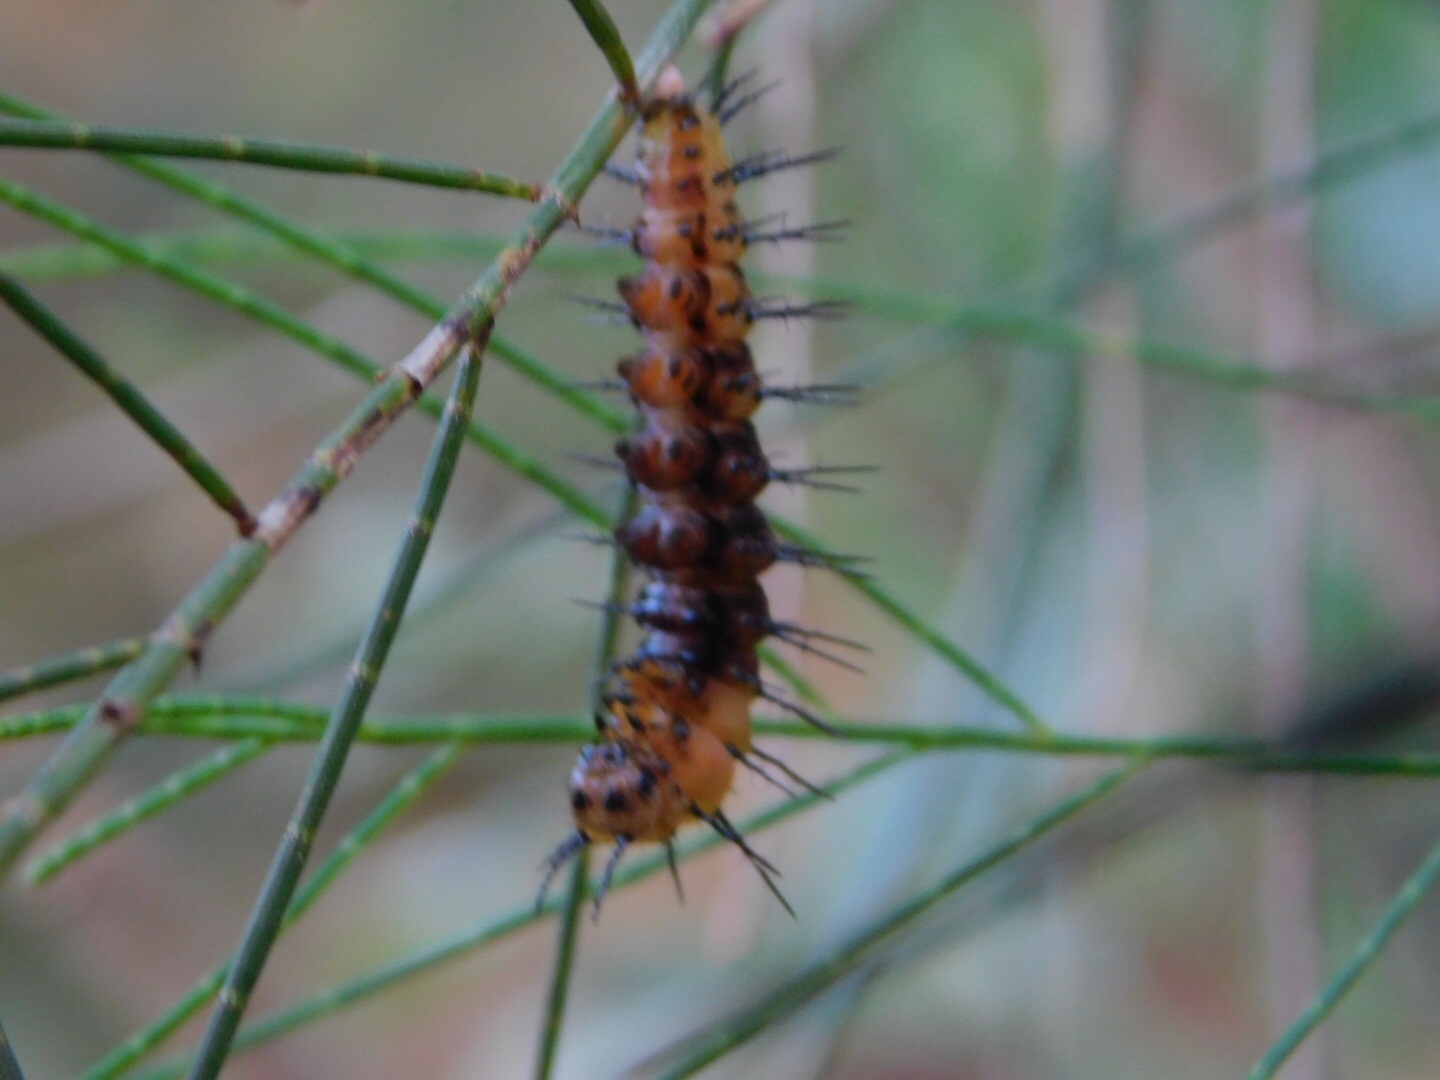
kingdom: Animalia
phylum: Arthropoda
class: Insecta
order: Lepidoptera
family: Nymphalidae
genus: Dione
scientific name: Dione vanillae
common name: Gulf fritillary
